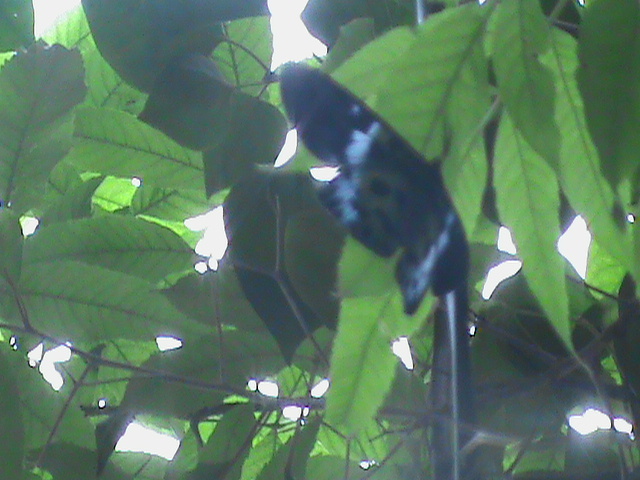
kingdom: Animalia
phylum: Arthropoda
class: Insecta
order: Lepidoptera
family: Geometridae
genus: Dysphania
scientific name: Dysphania percota
